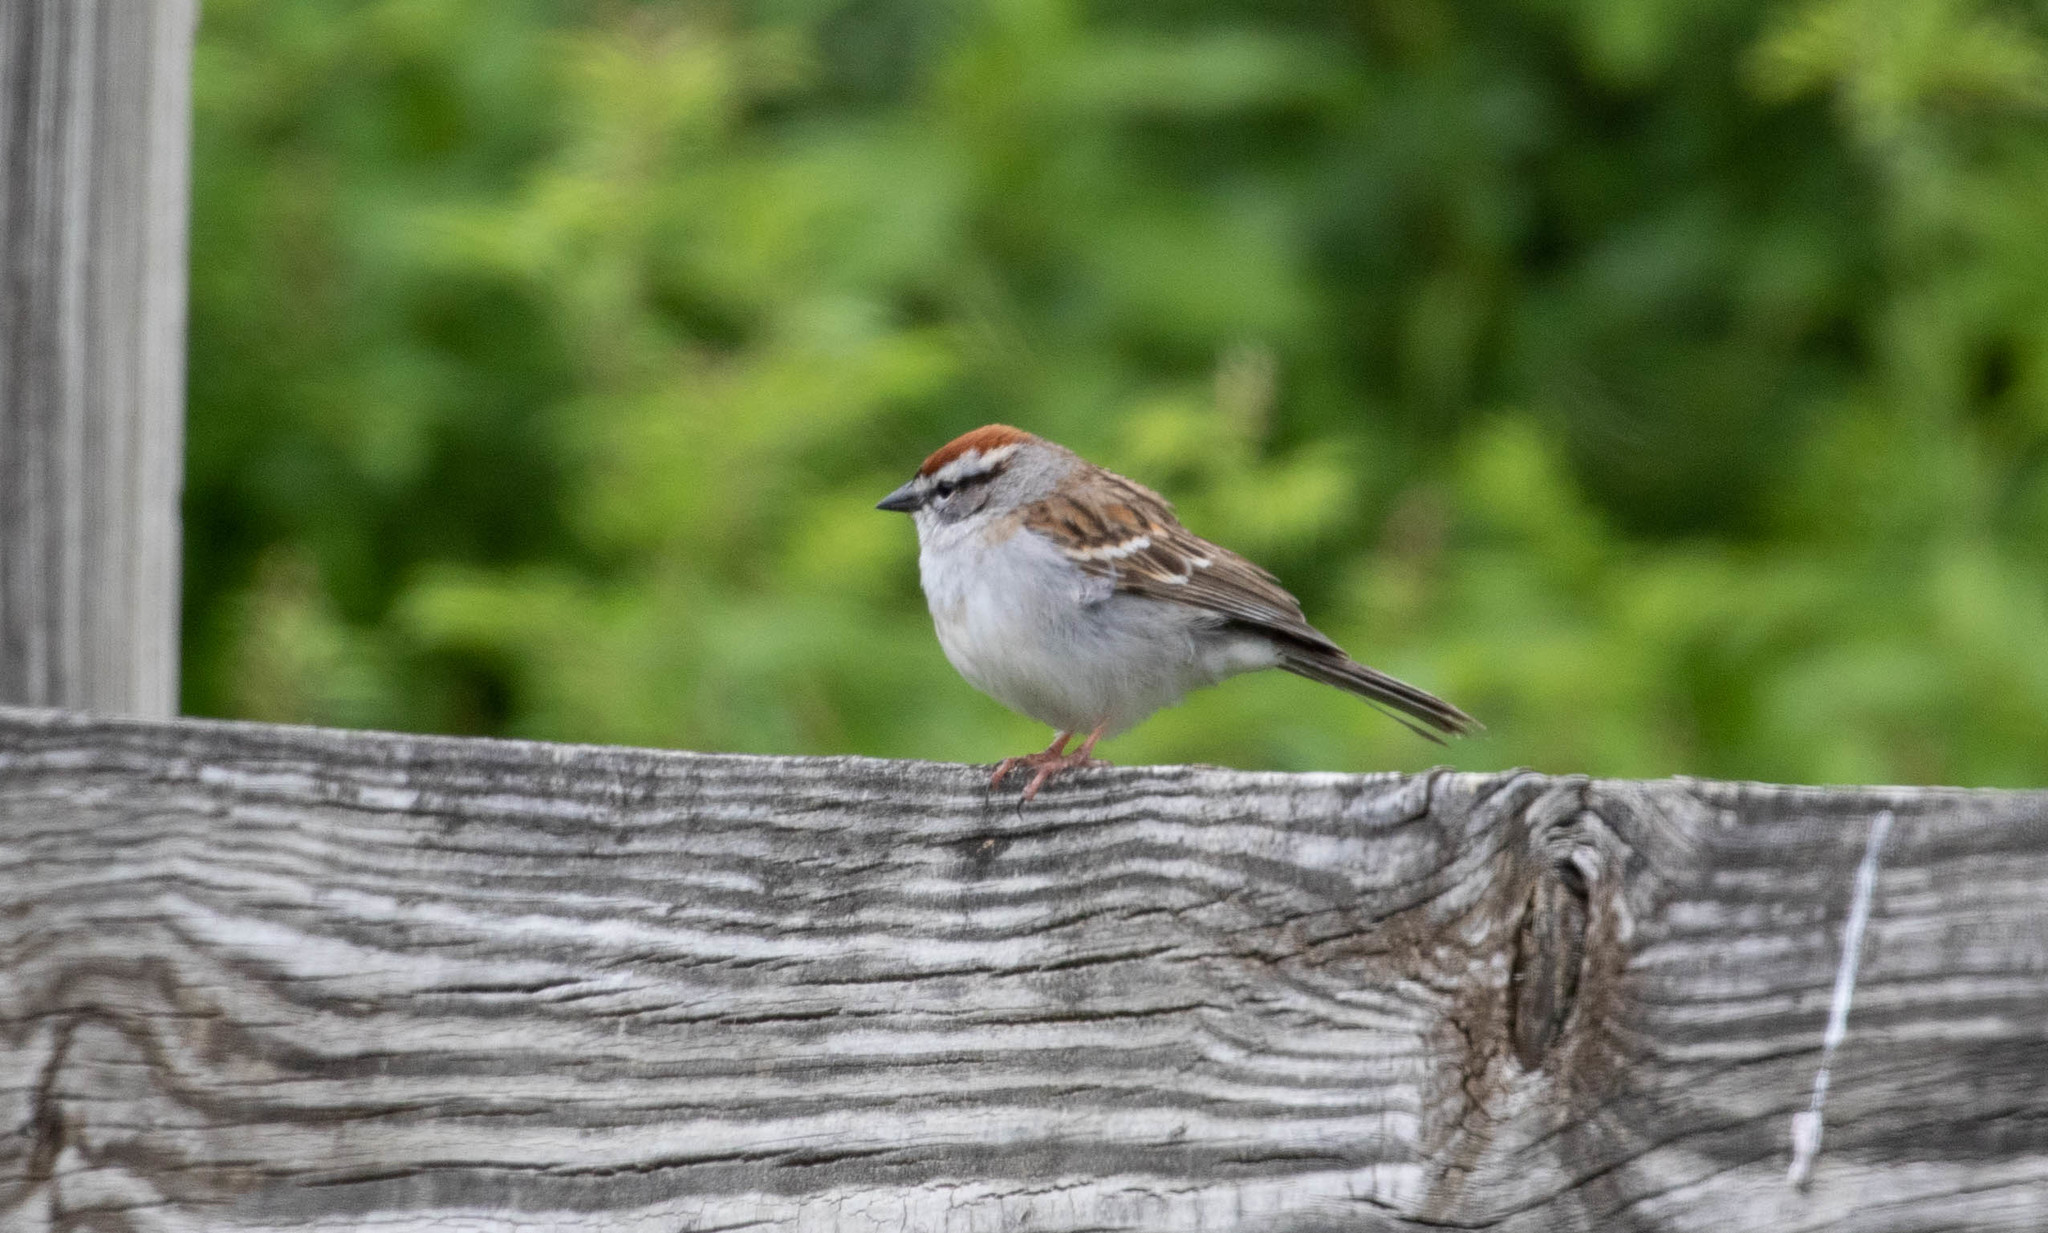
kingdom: Animalia
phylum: Chordata
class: Aves
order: Passeriformes
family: Passerellidae
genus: Spizella
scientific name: Spizella passerina
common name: Chipping sparrow
